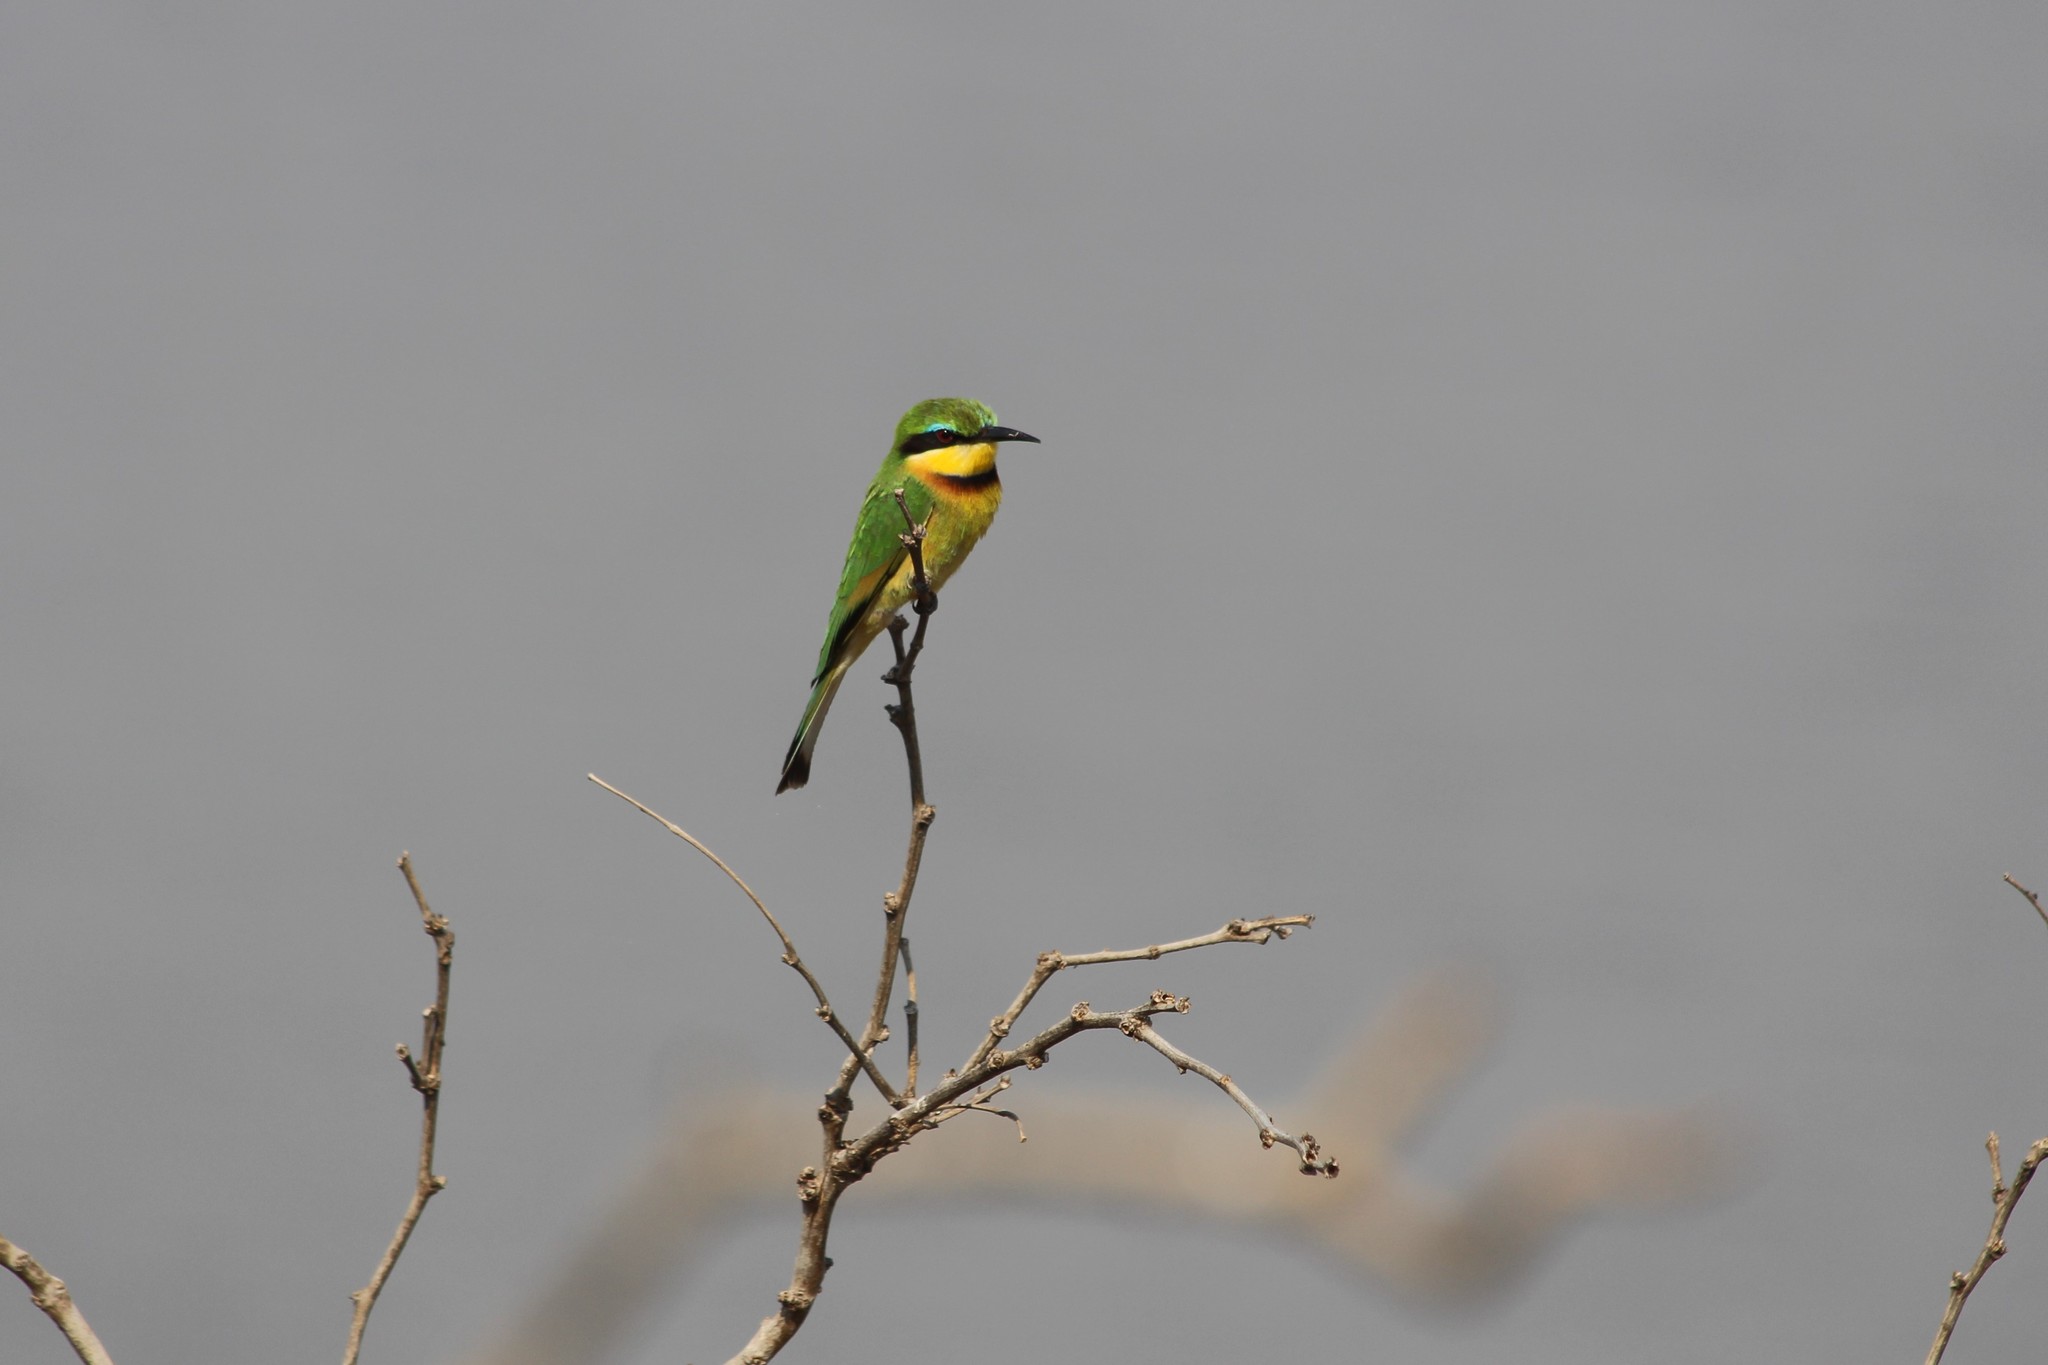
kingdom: Animalia
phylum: Chordata
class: Aves
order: Coraciiformes
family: Meropidae
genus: Merops
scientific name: Merops pusillus
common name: Little bee-eater
